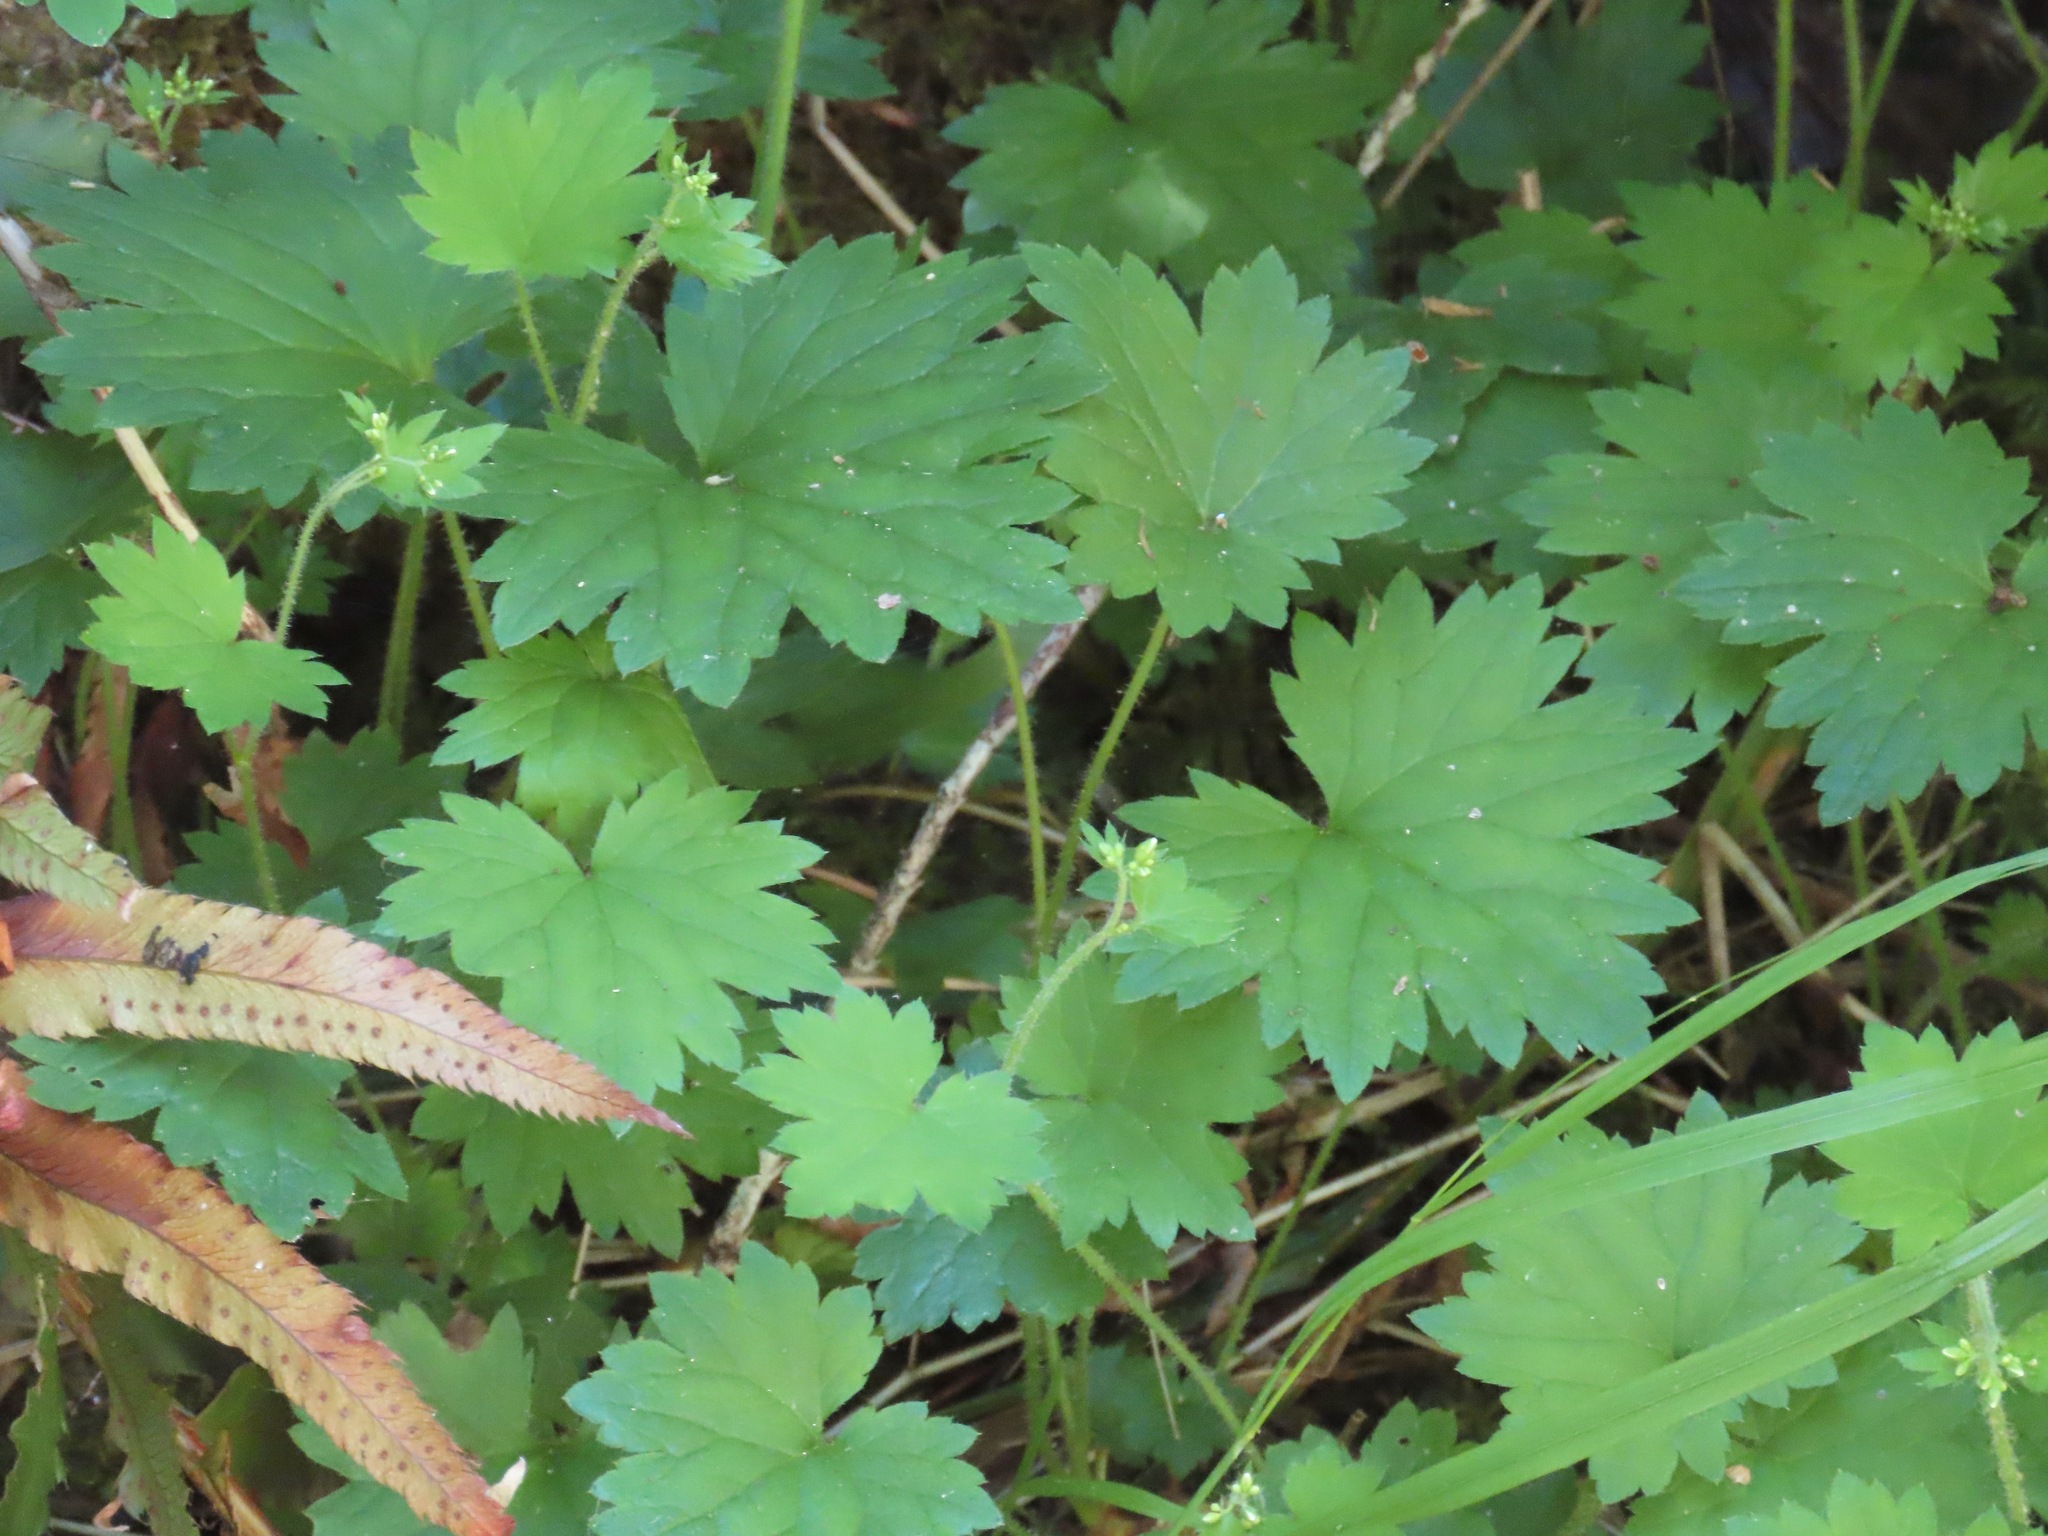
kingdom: Plantae
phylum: Tracheophyta
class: Magnoliopsida
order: Saxifragales
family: Saxifragaceae
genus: Boykinia
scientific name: Boykinia occidentalis
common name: Coast boykinia
